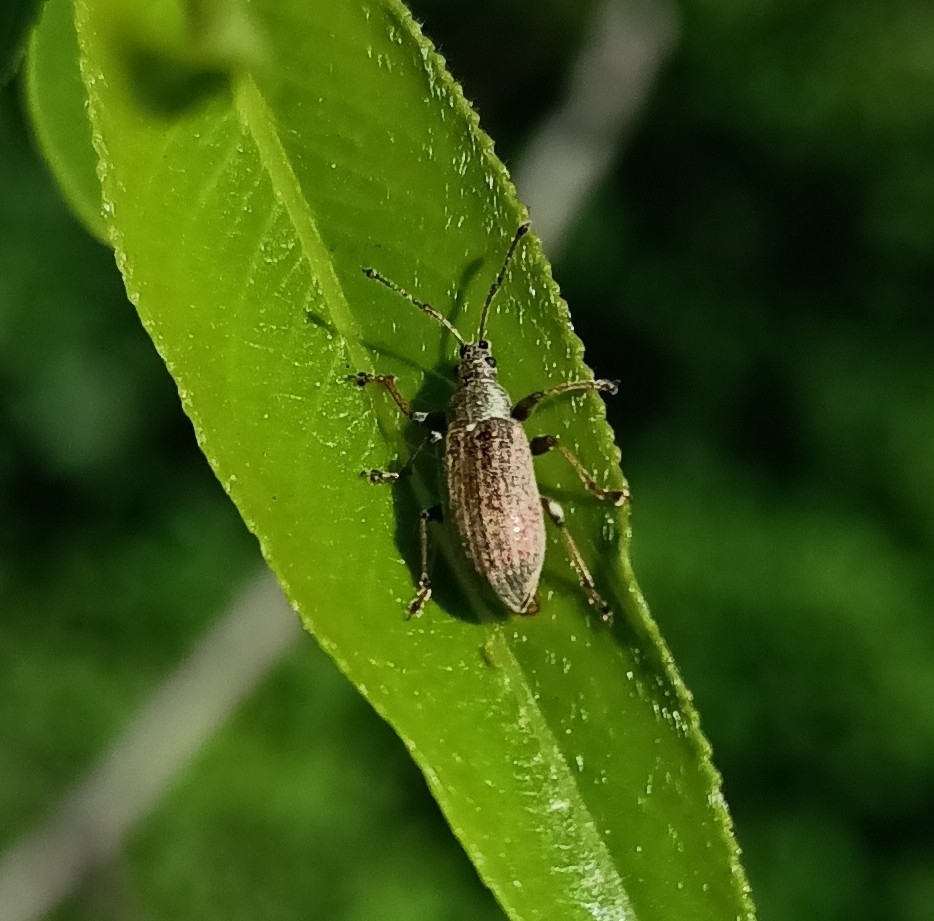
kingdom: Animalia
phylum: Arthropoda
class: Insecta
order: Coleoptera
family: Curculionidae
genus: Phyllobius
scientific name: Phyllobius pyri
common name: Common leaf weevil
